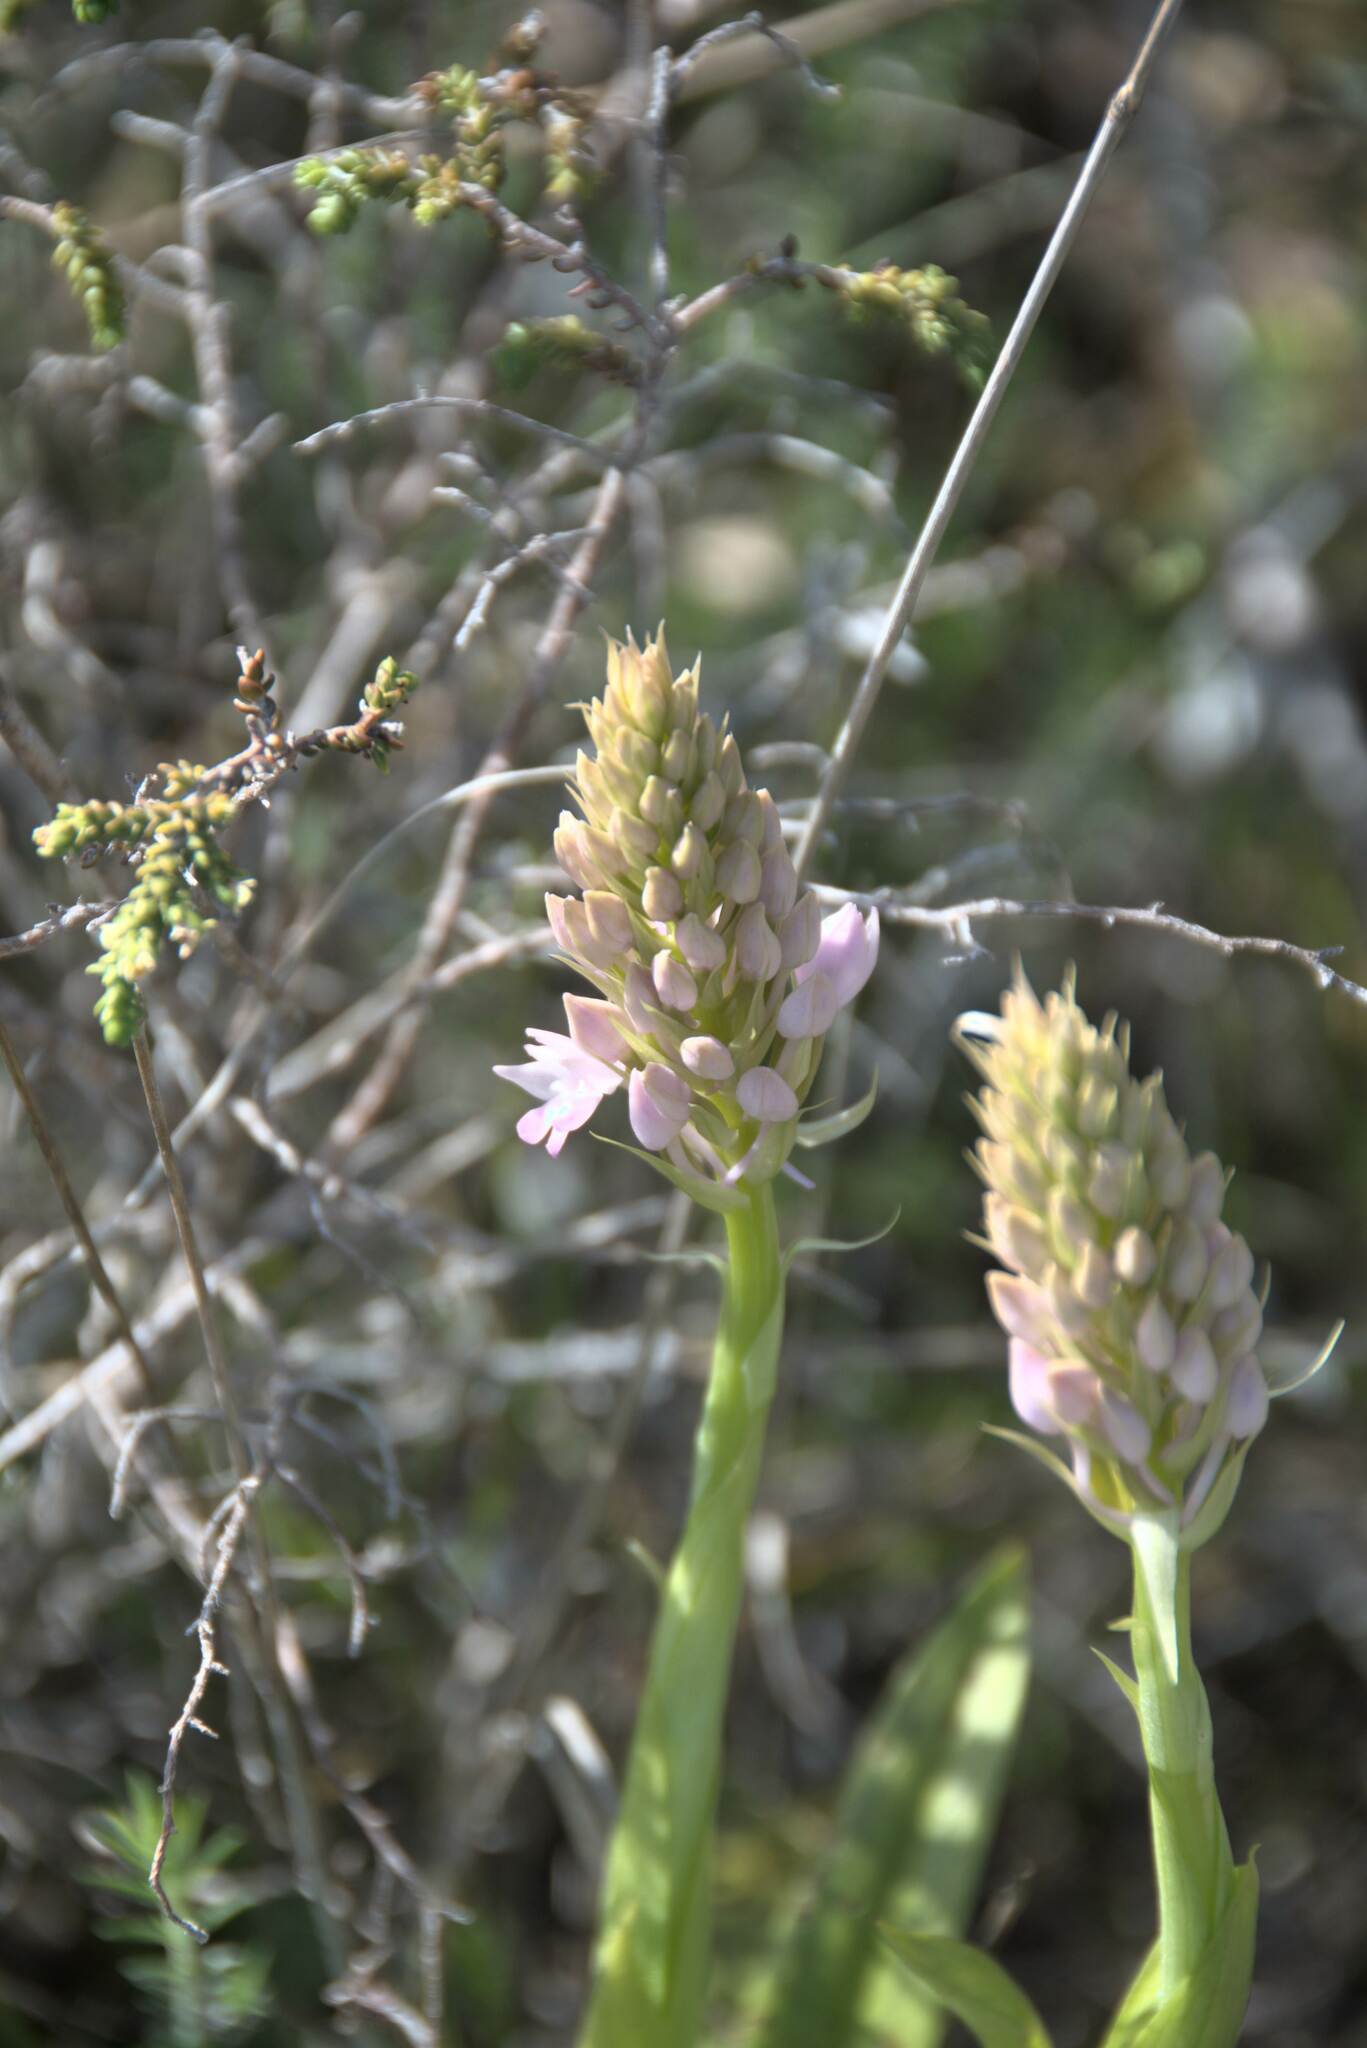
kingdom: Plantae
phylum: Tracheophyta
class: Liliopsida
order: Asparagales
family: Orchidaceae
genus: Anacamptis
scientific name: Anacamptis pyramidalis
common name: Pyramidal orchid
